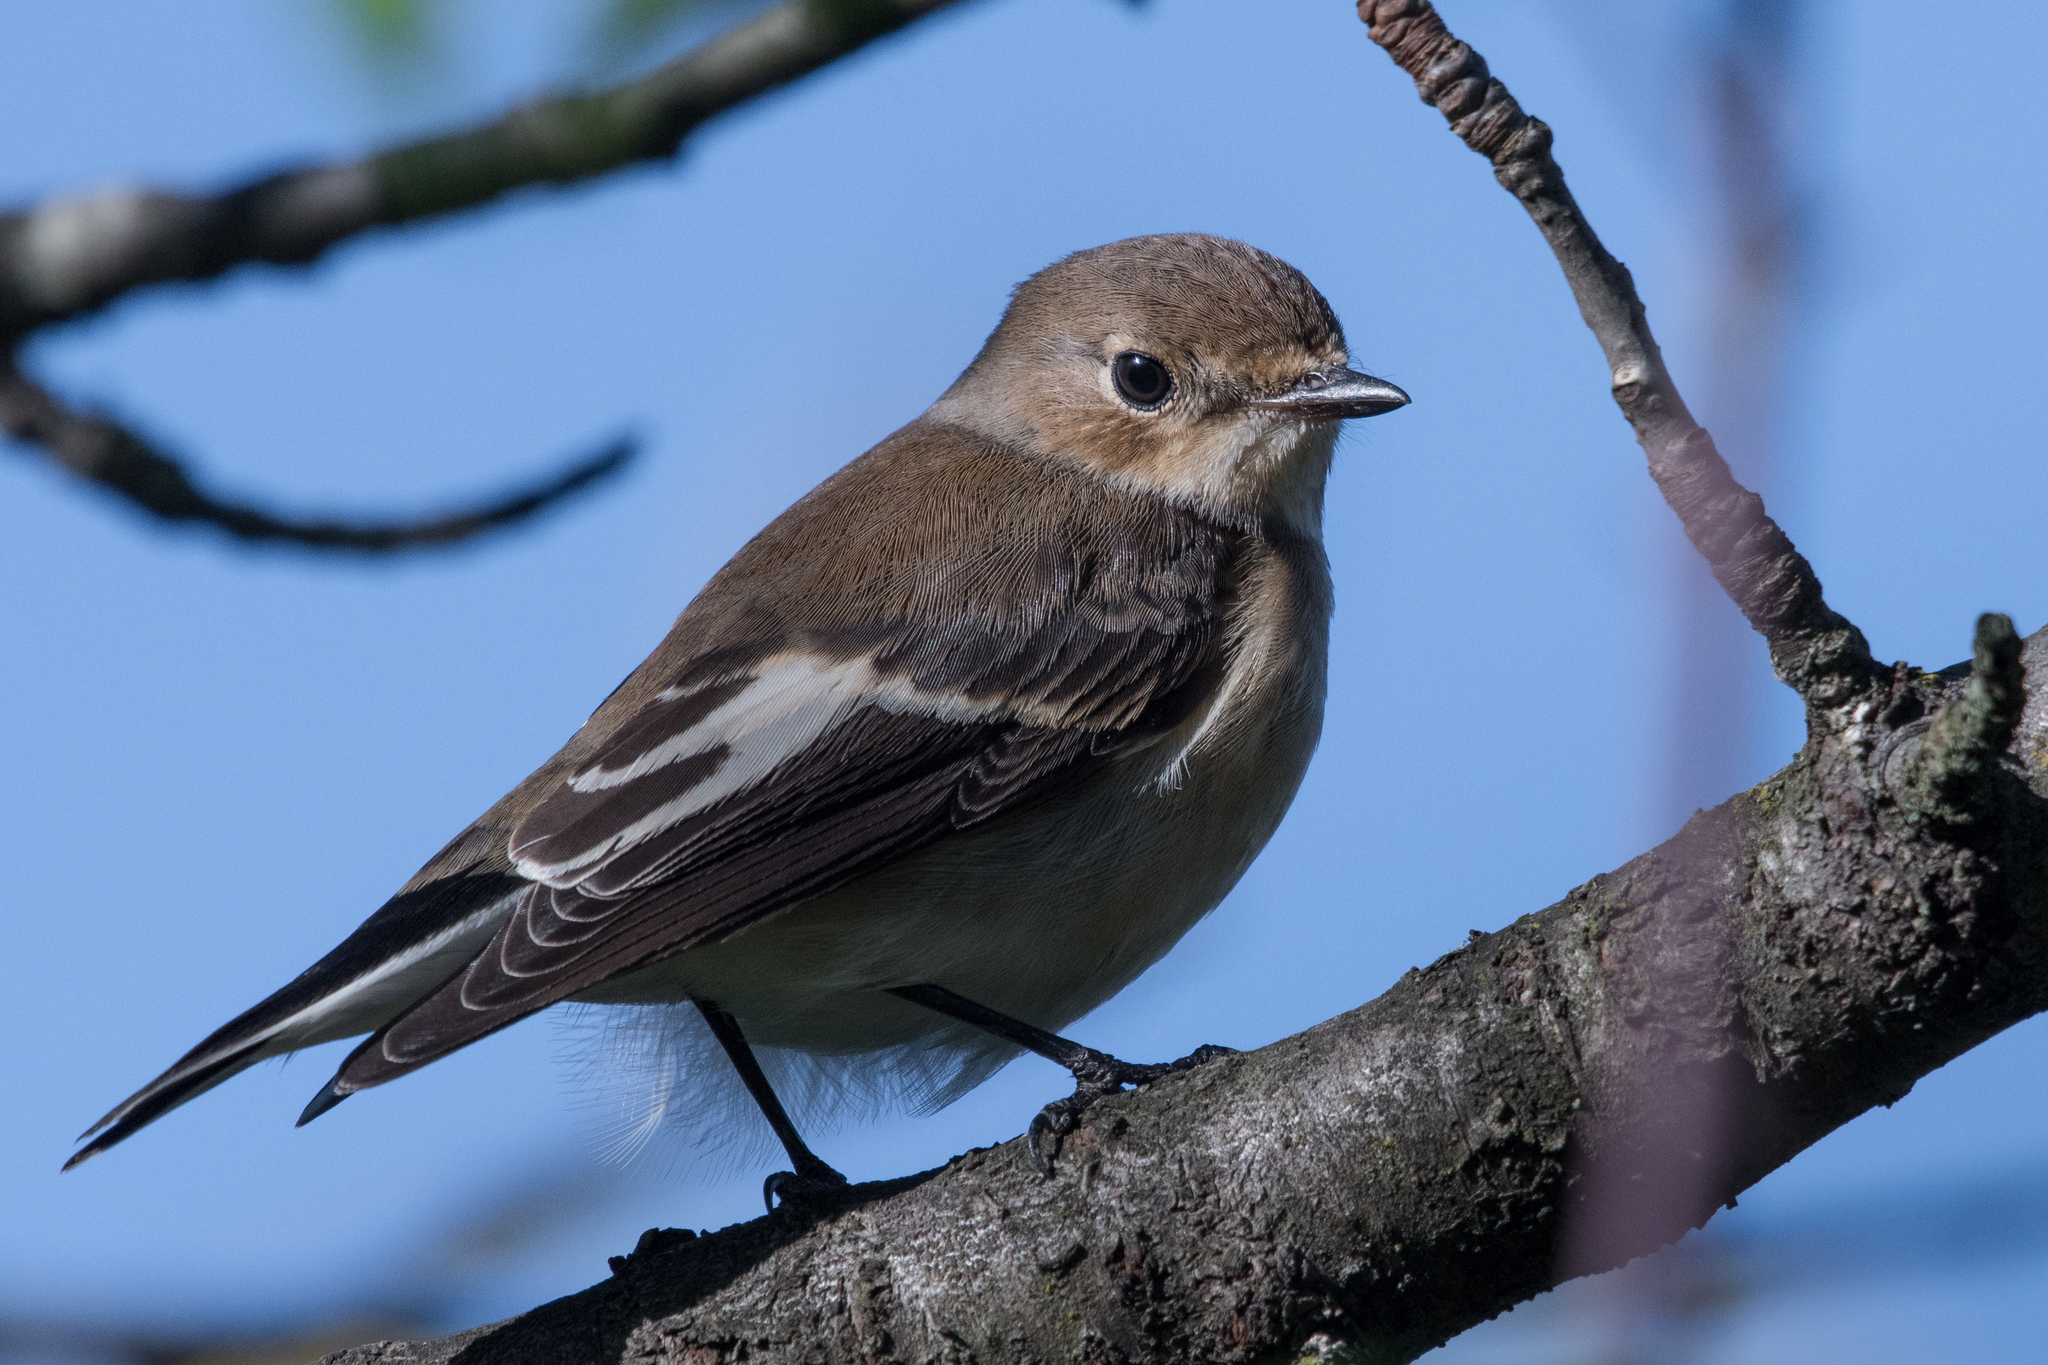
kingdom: Animalia
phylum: Chordata
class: Aves
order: Passeriformes
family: Muscicapidae
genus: Ficedula
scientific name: Ficedula hypoleuca
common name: European pied flycatcher
